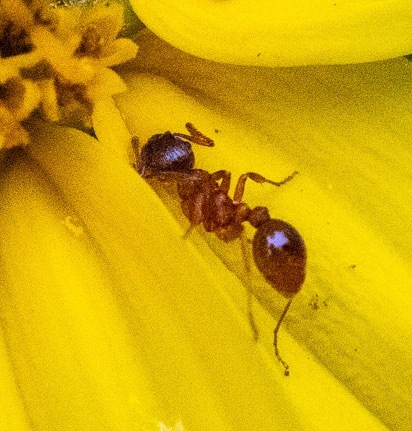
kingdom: Animalia
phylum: Arthropoda
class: Insecta
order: Hymenoptera
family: Formicidae
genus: Myrmica
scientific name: Myrmica rubra
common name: European fire ant
